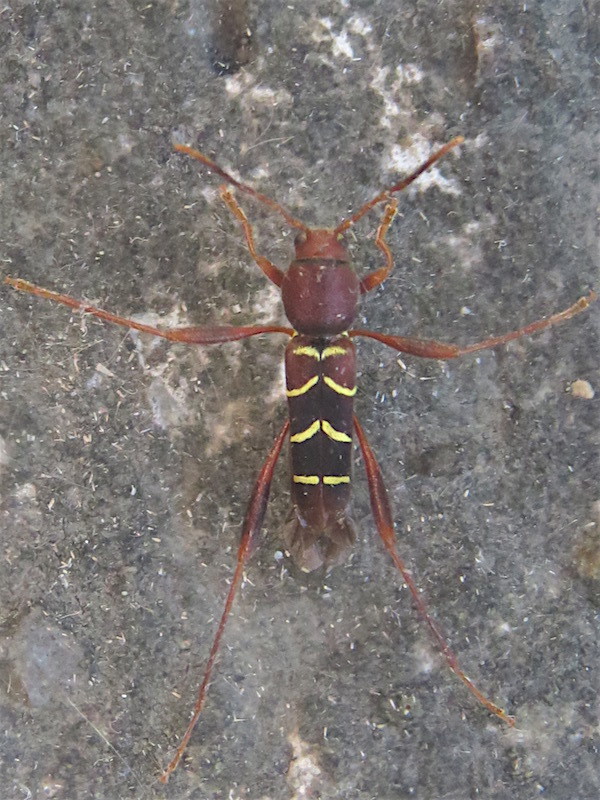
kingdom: Animalia
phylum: Arthropoda
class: Insecta
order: Coleoptera
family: Cerambycidae
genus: Neoclytus
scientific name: Neoclytus acuminatus
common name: Read-headed ash borer
